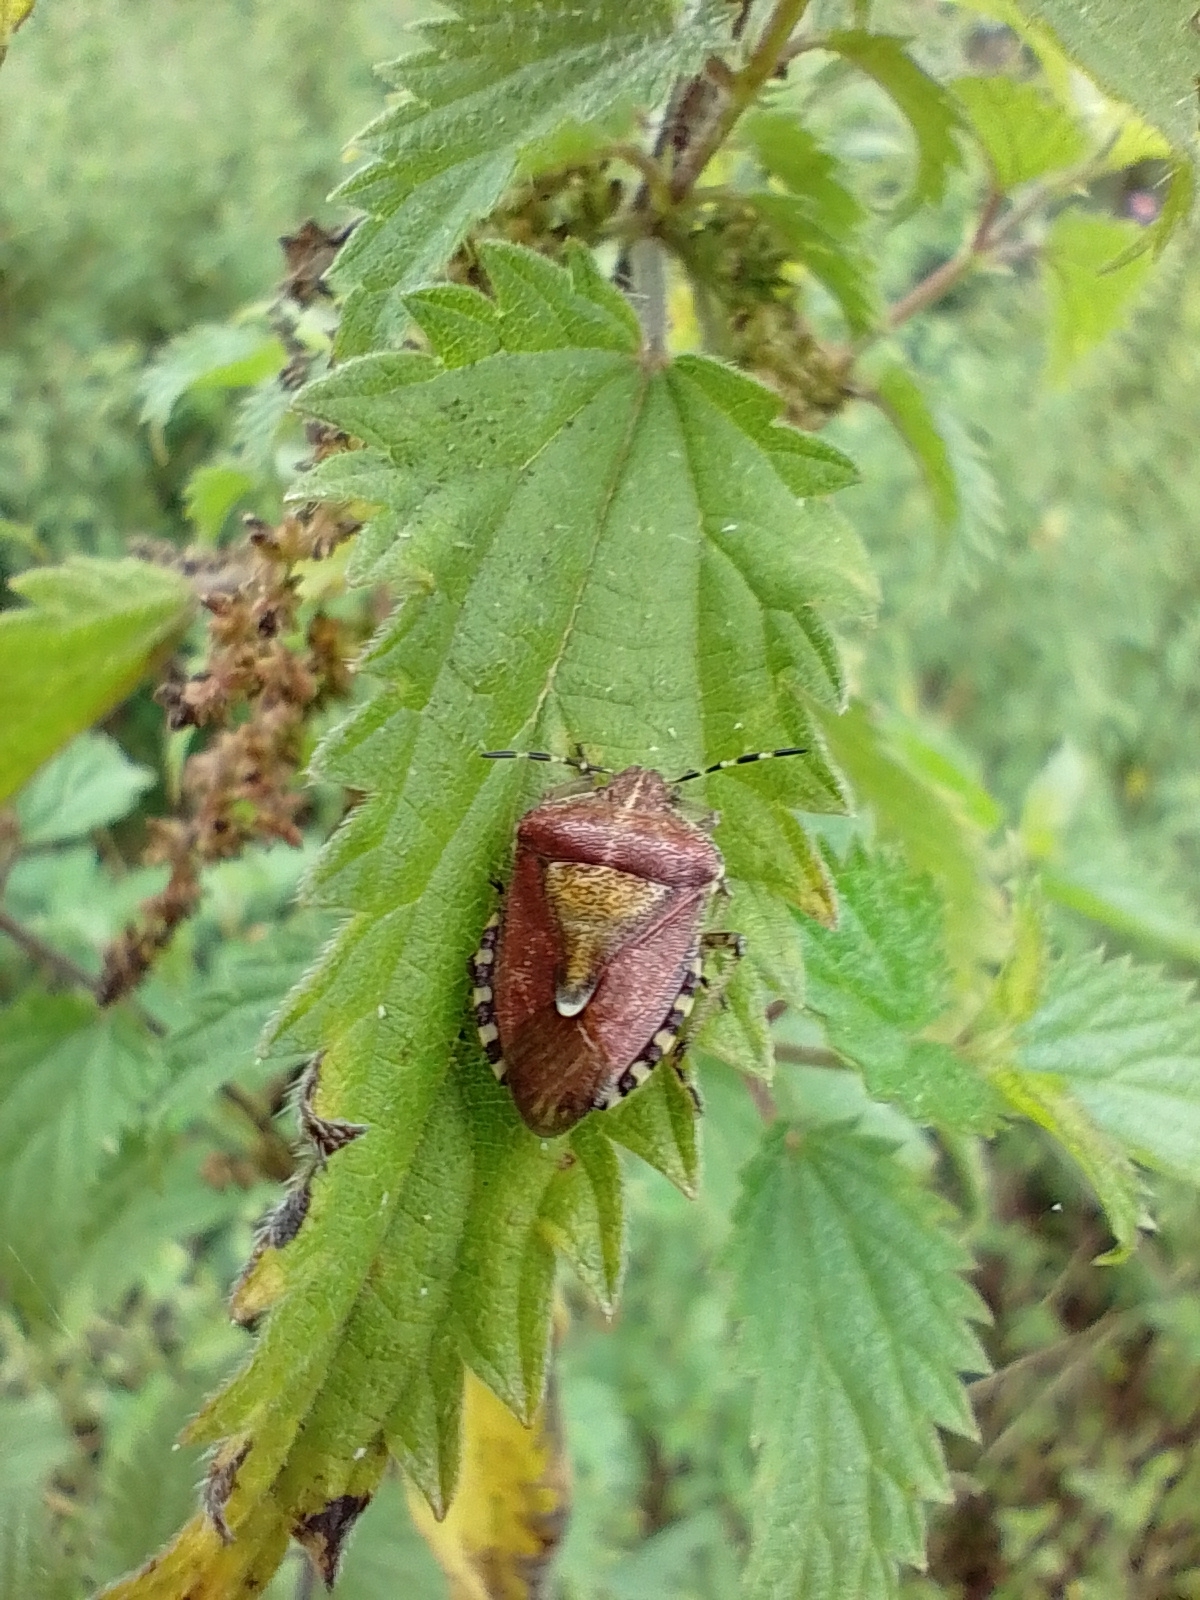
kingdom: Animalia
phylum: Arthropoda
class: Insecta
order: Hemiptera
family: Pentatomidae
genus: Dolycoris
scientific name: Dolycoris baccarum
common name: Sloe bug
